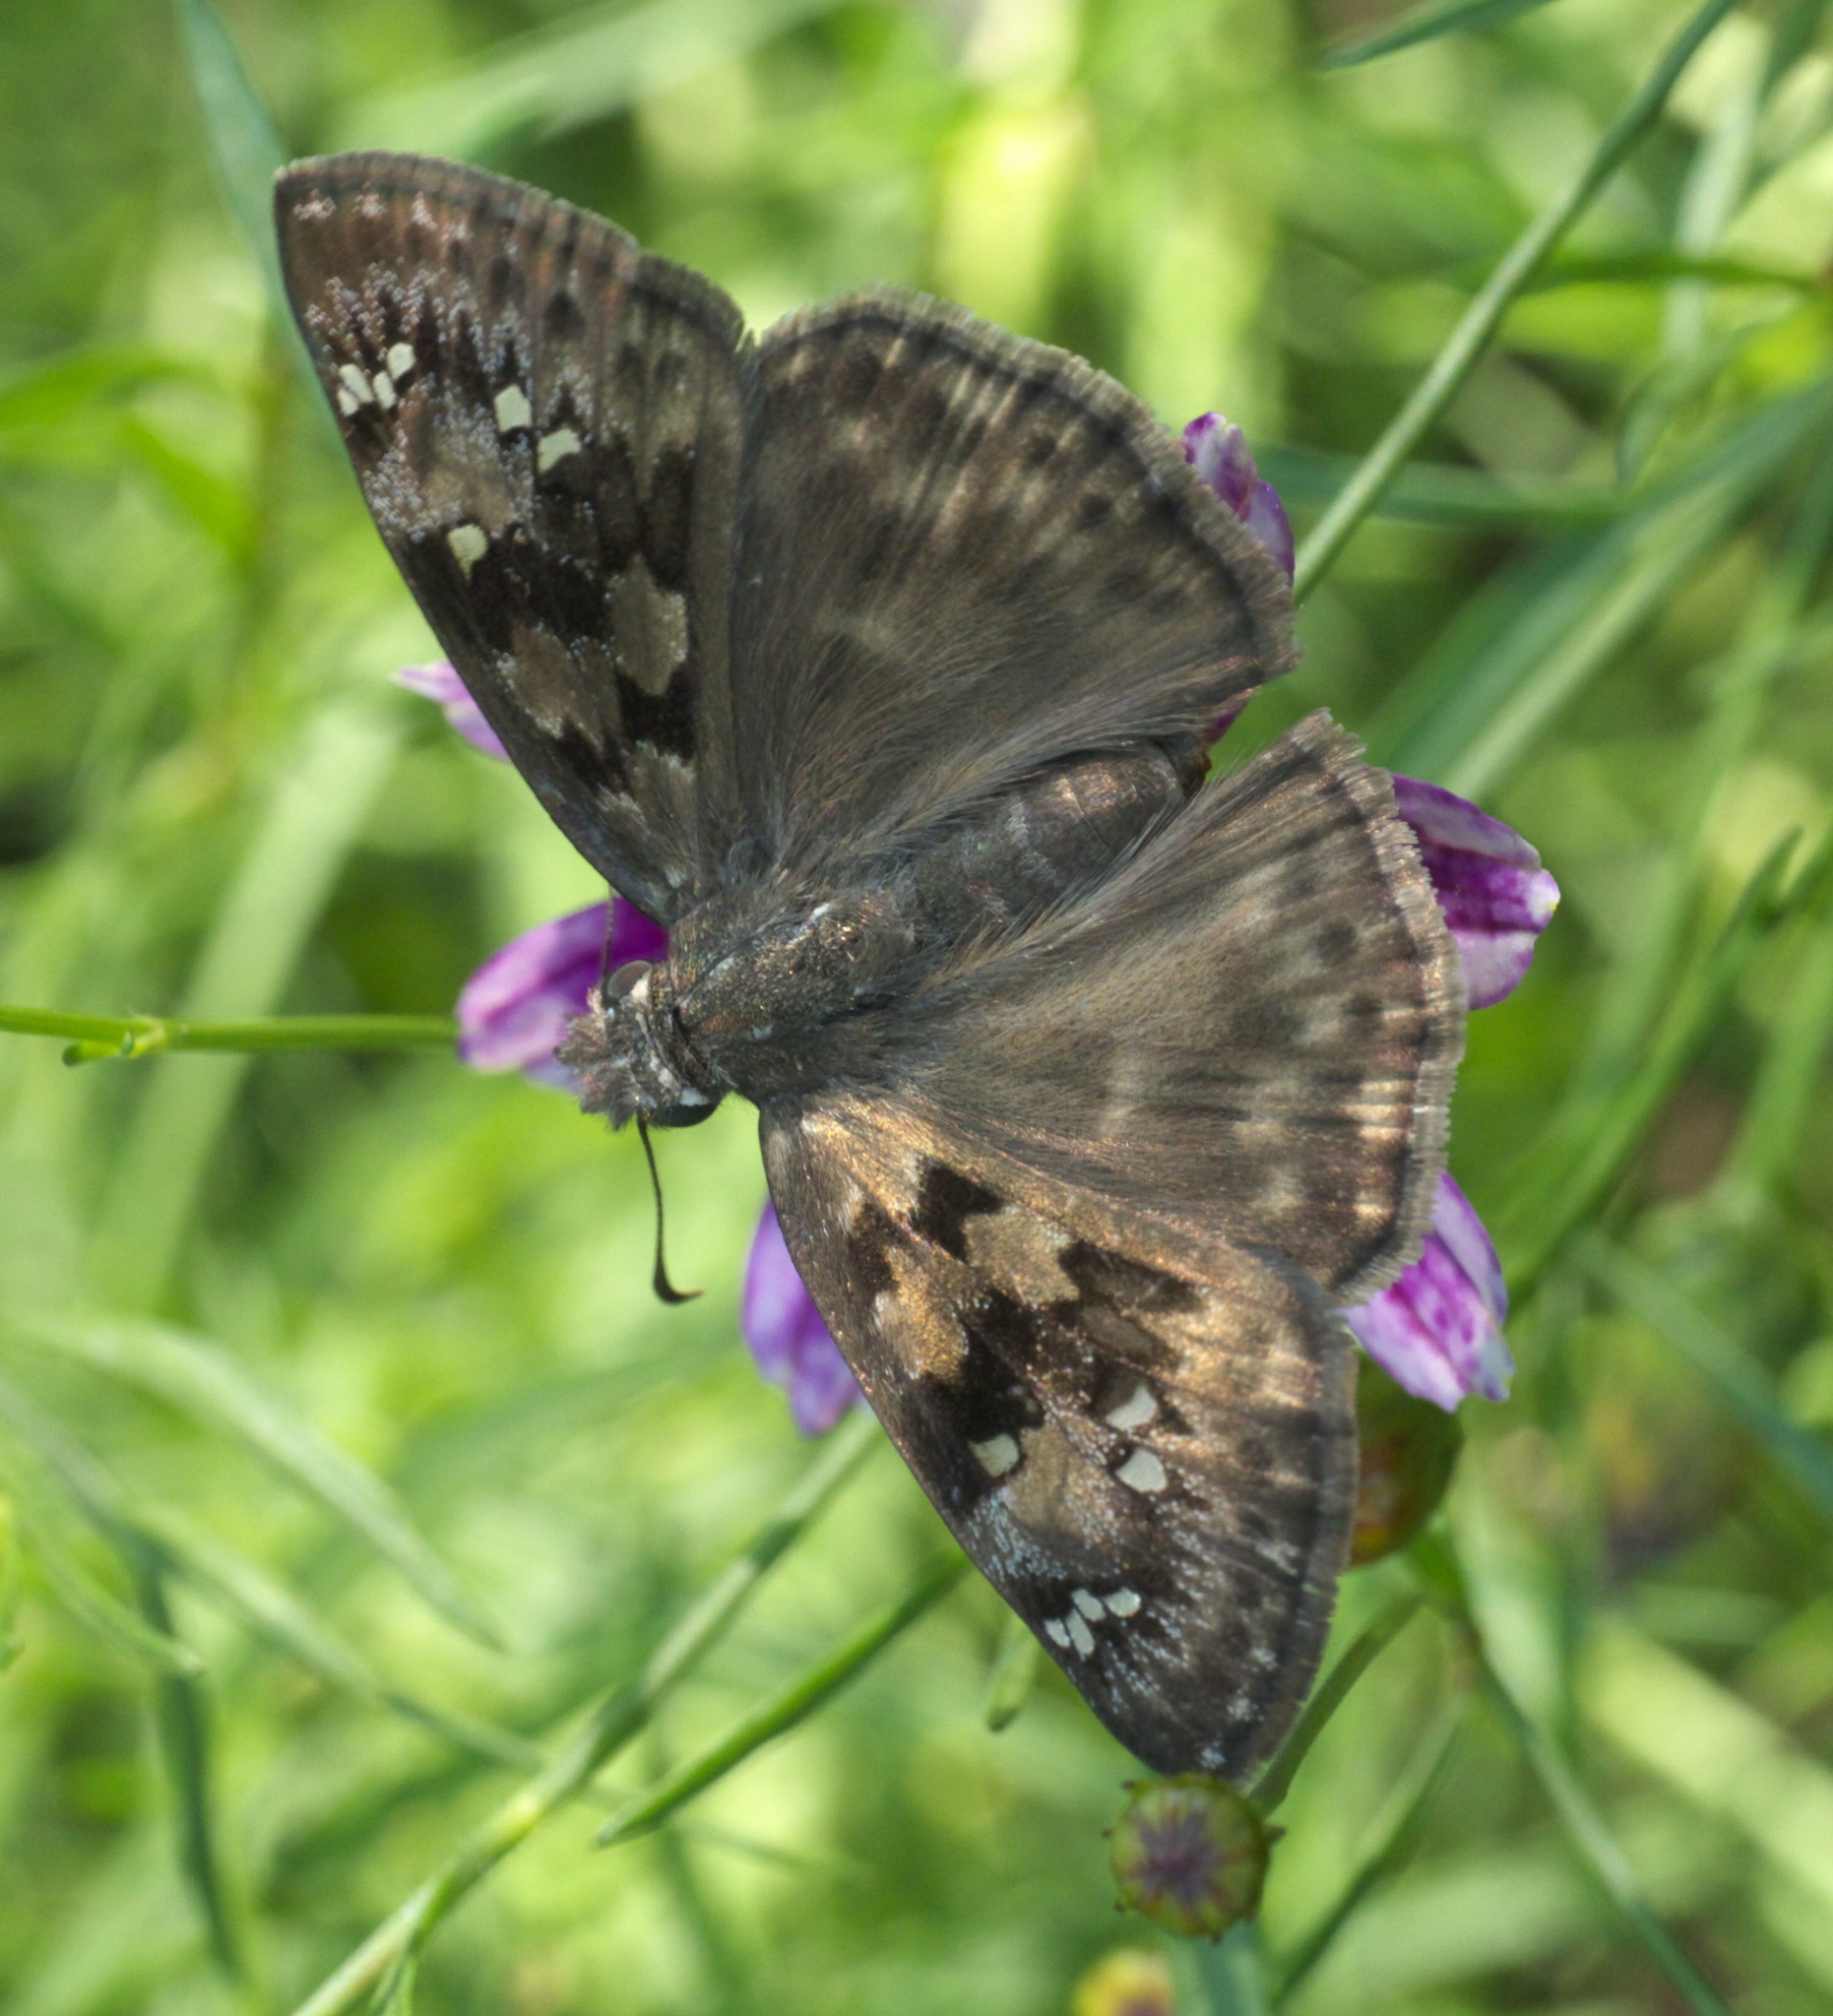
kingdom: Animalia
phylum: Arthropoda
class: Insecta
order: Lepidoptera
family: Hesperiidae
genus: Erynnis
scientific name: Erynnis horatius
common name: Horace's duskywing
